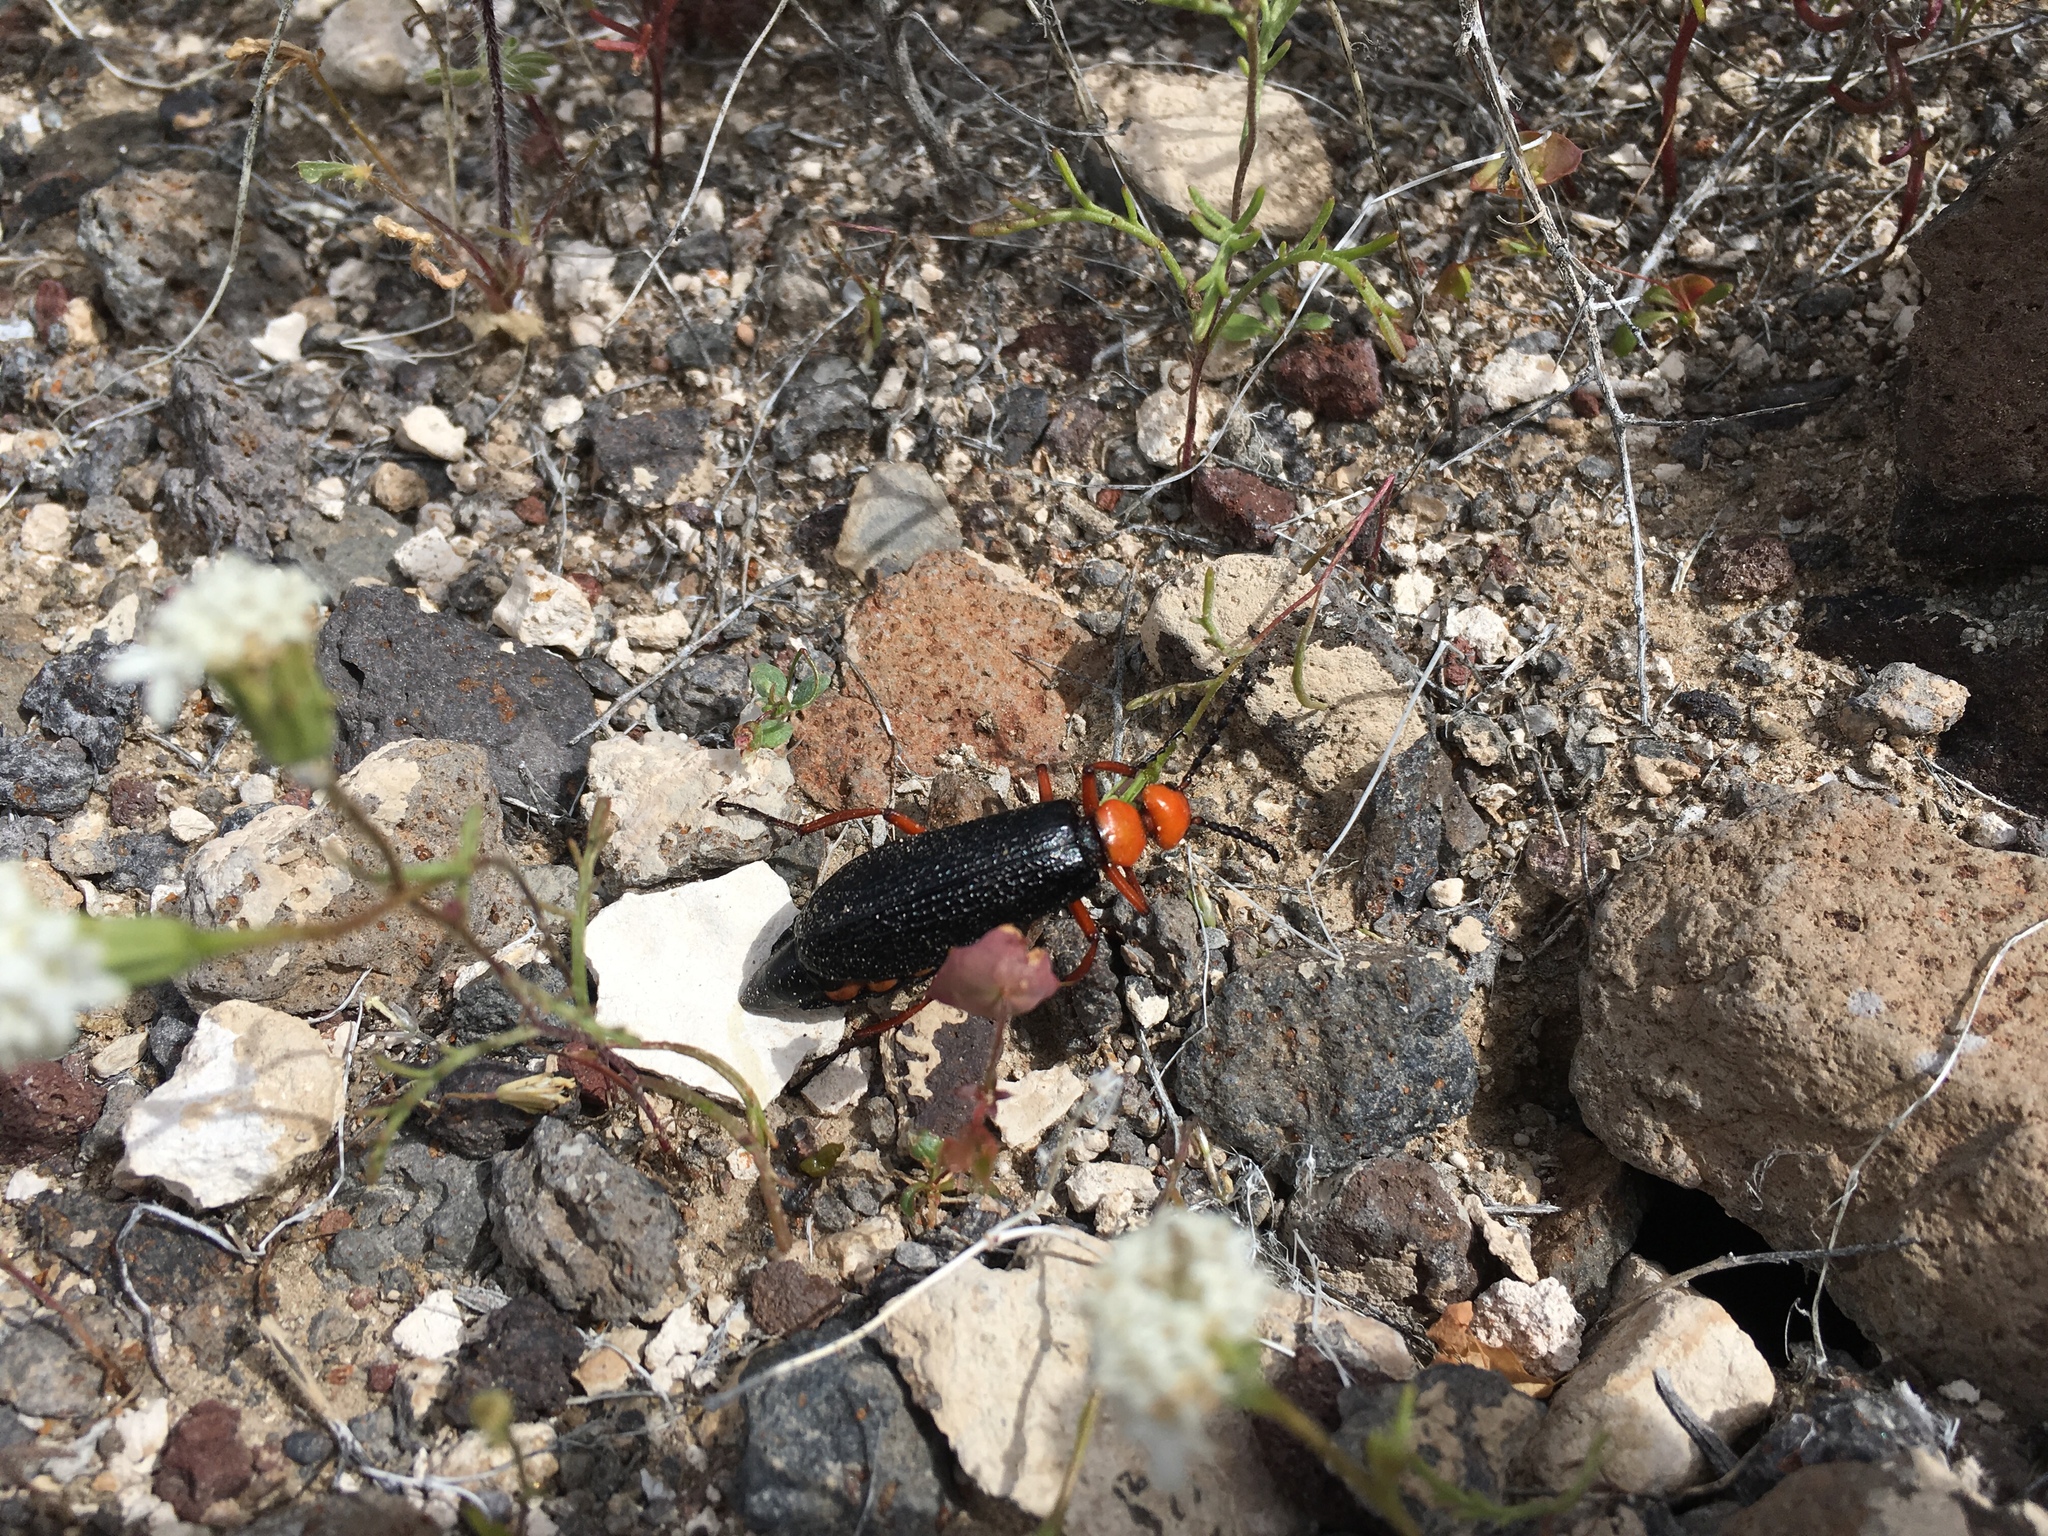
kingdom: Animalia
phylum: Arthropoda
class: Insecta
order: Coleoptera
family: Meloidae
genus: Lytta
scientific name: Lytta magister
